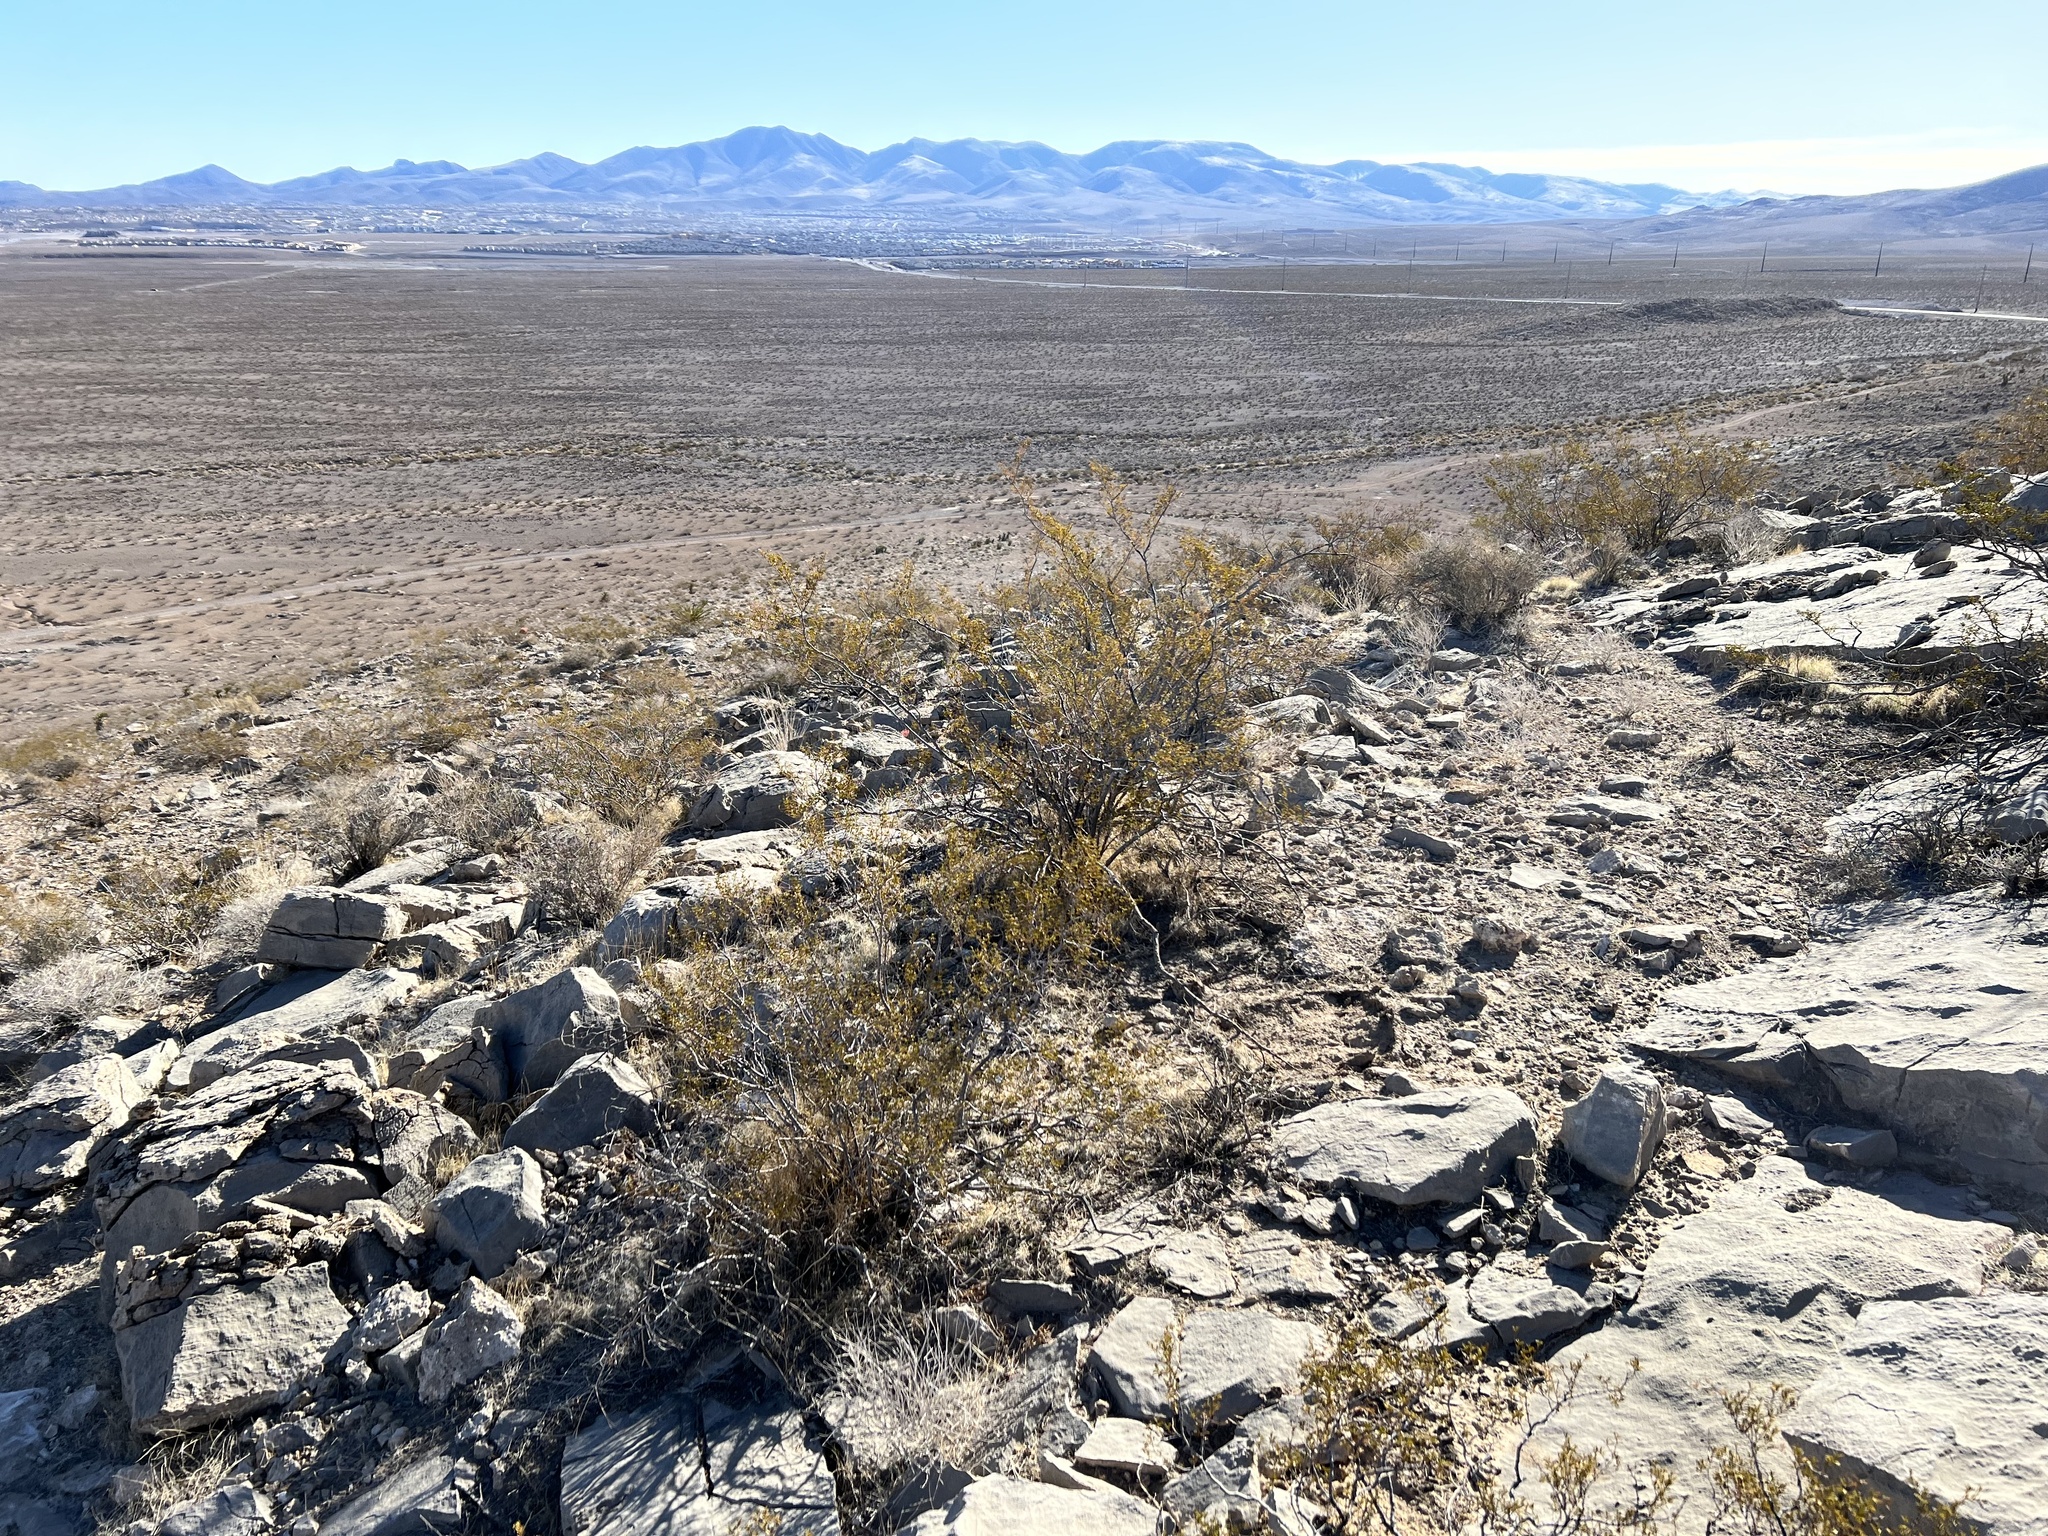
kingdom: Plantae
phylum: Tracheophyta
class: Magnoliopsida
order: Zygophyllales
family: Zygophyllaceae
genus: Larrea
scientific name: Larrea tridentata
